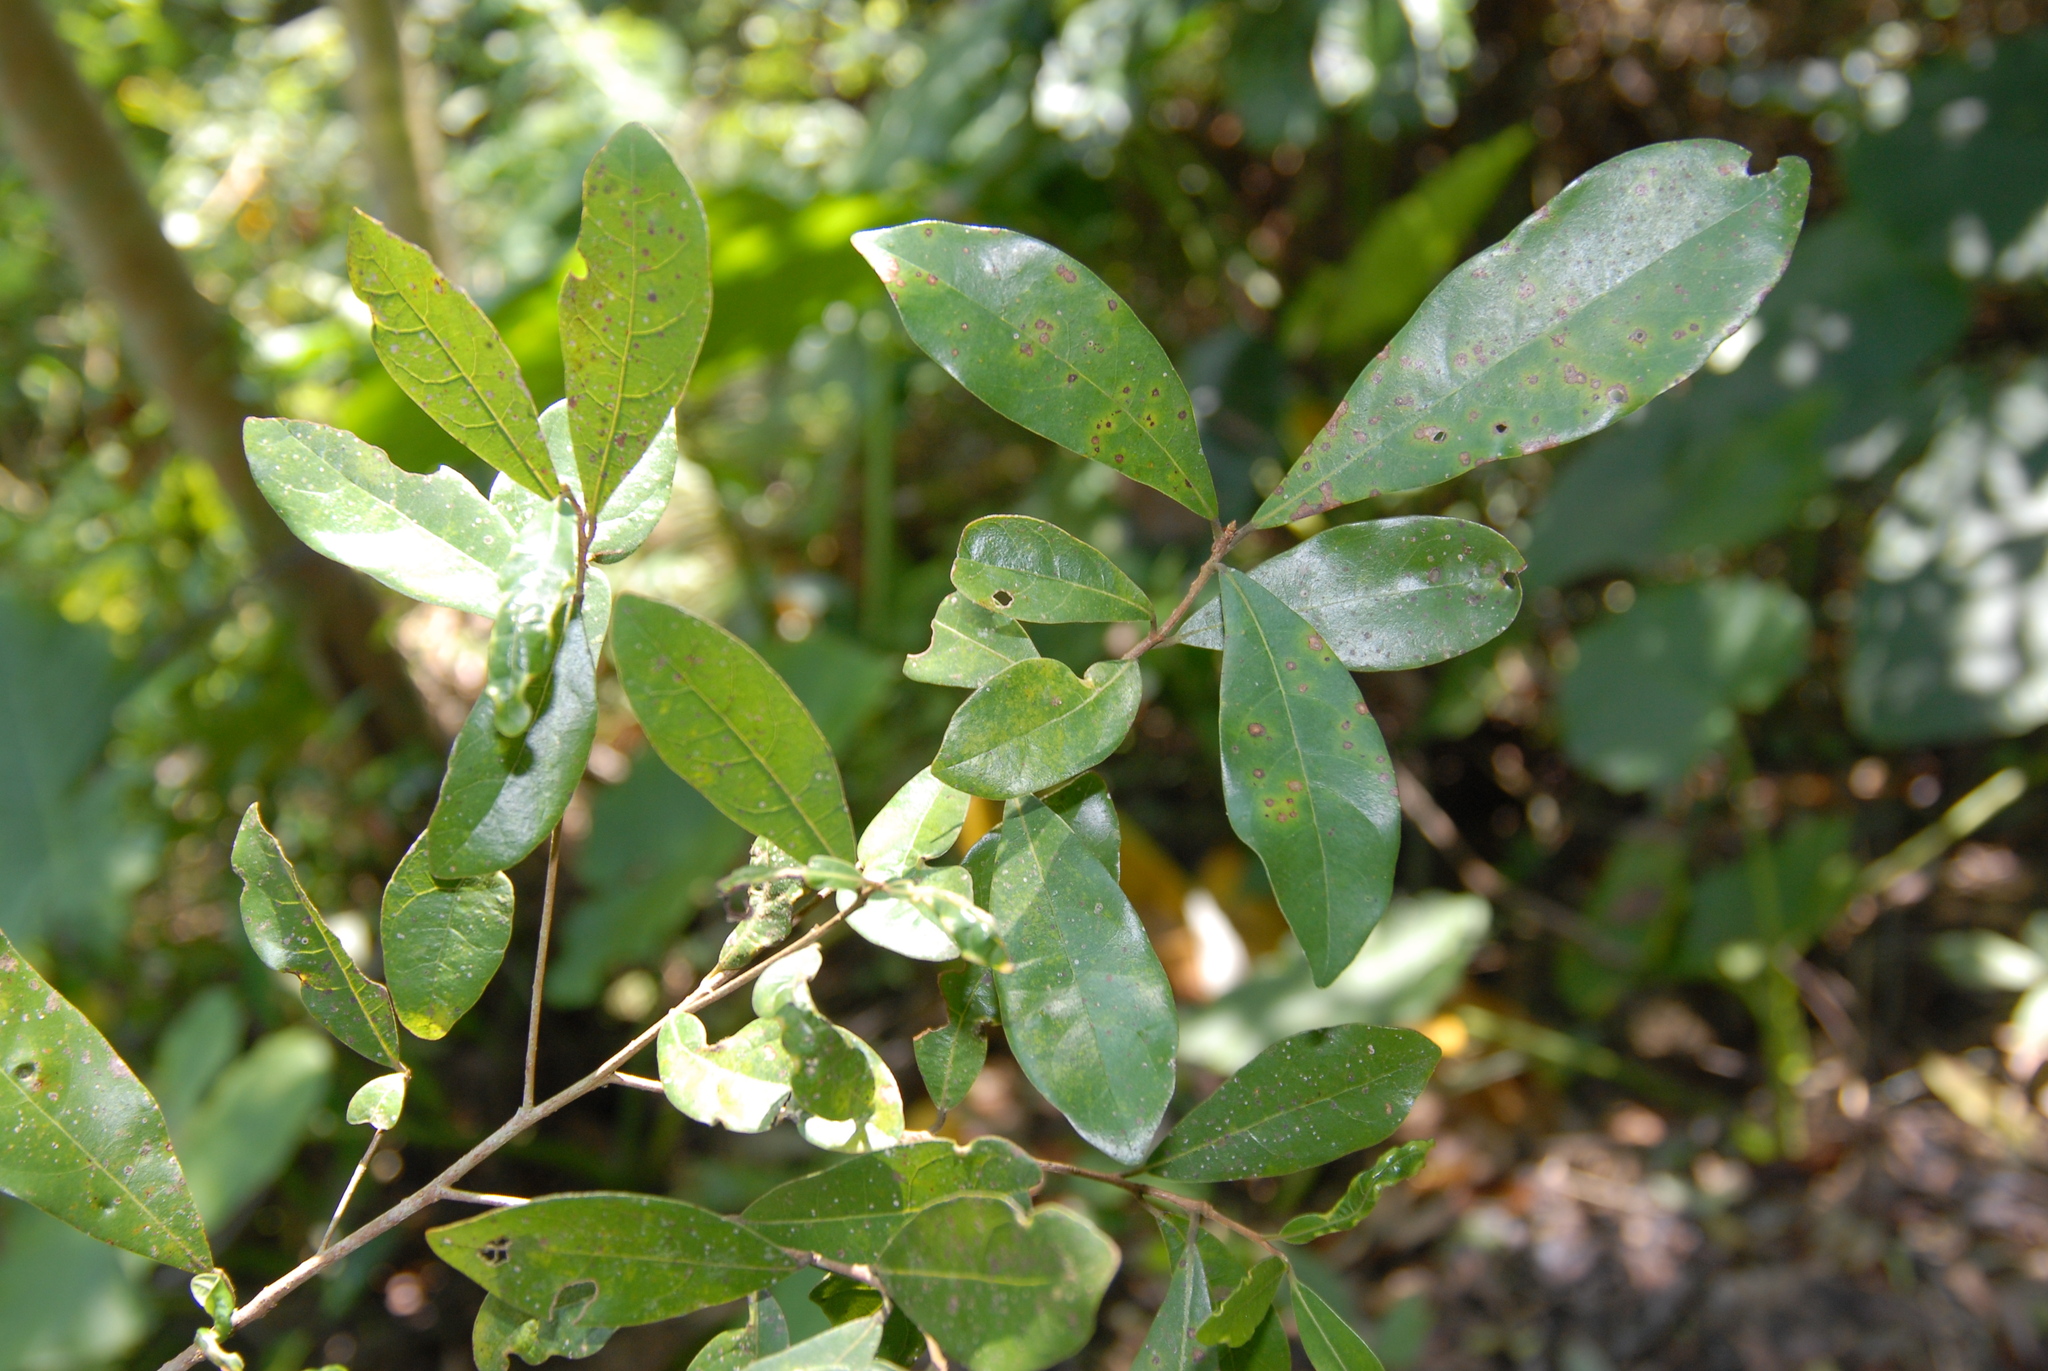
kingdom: Plantae
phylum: Tracheophyta
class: Magnoliopsida
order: Laurales
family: Lauraceae
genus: Litsea
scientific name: Litsea hypophaea
